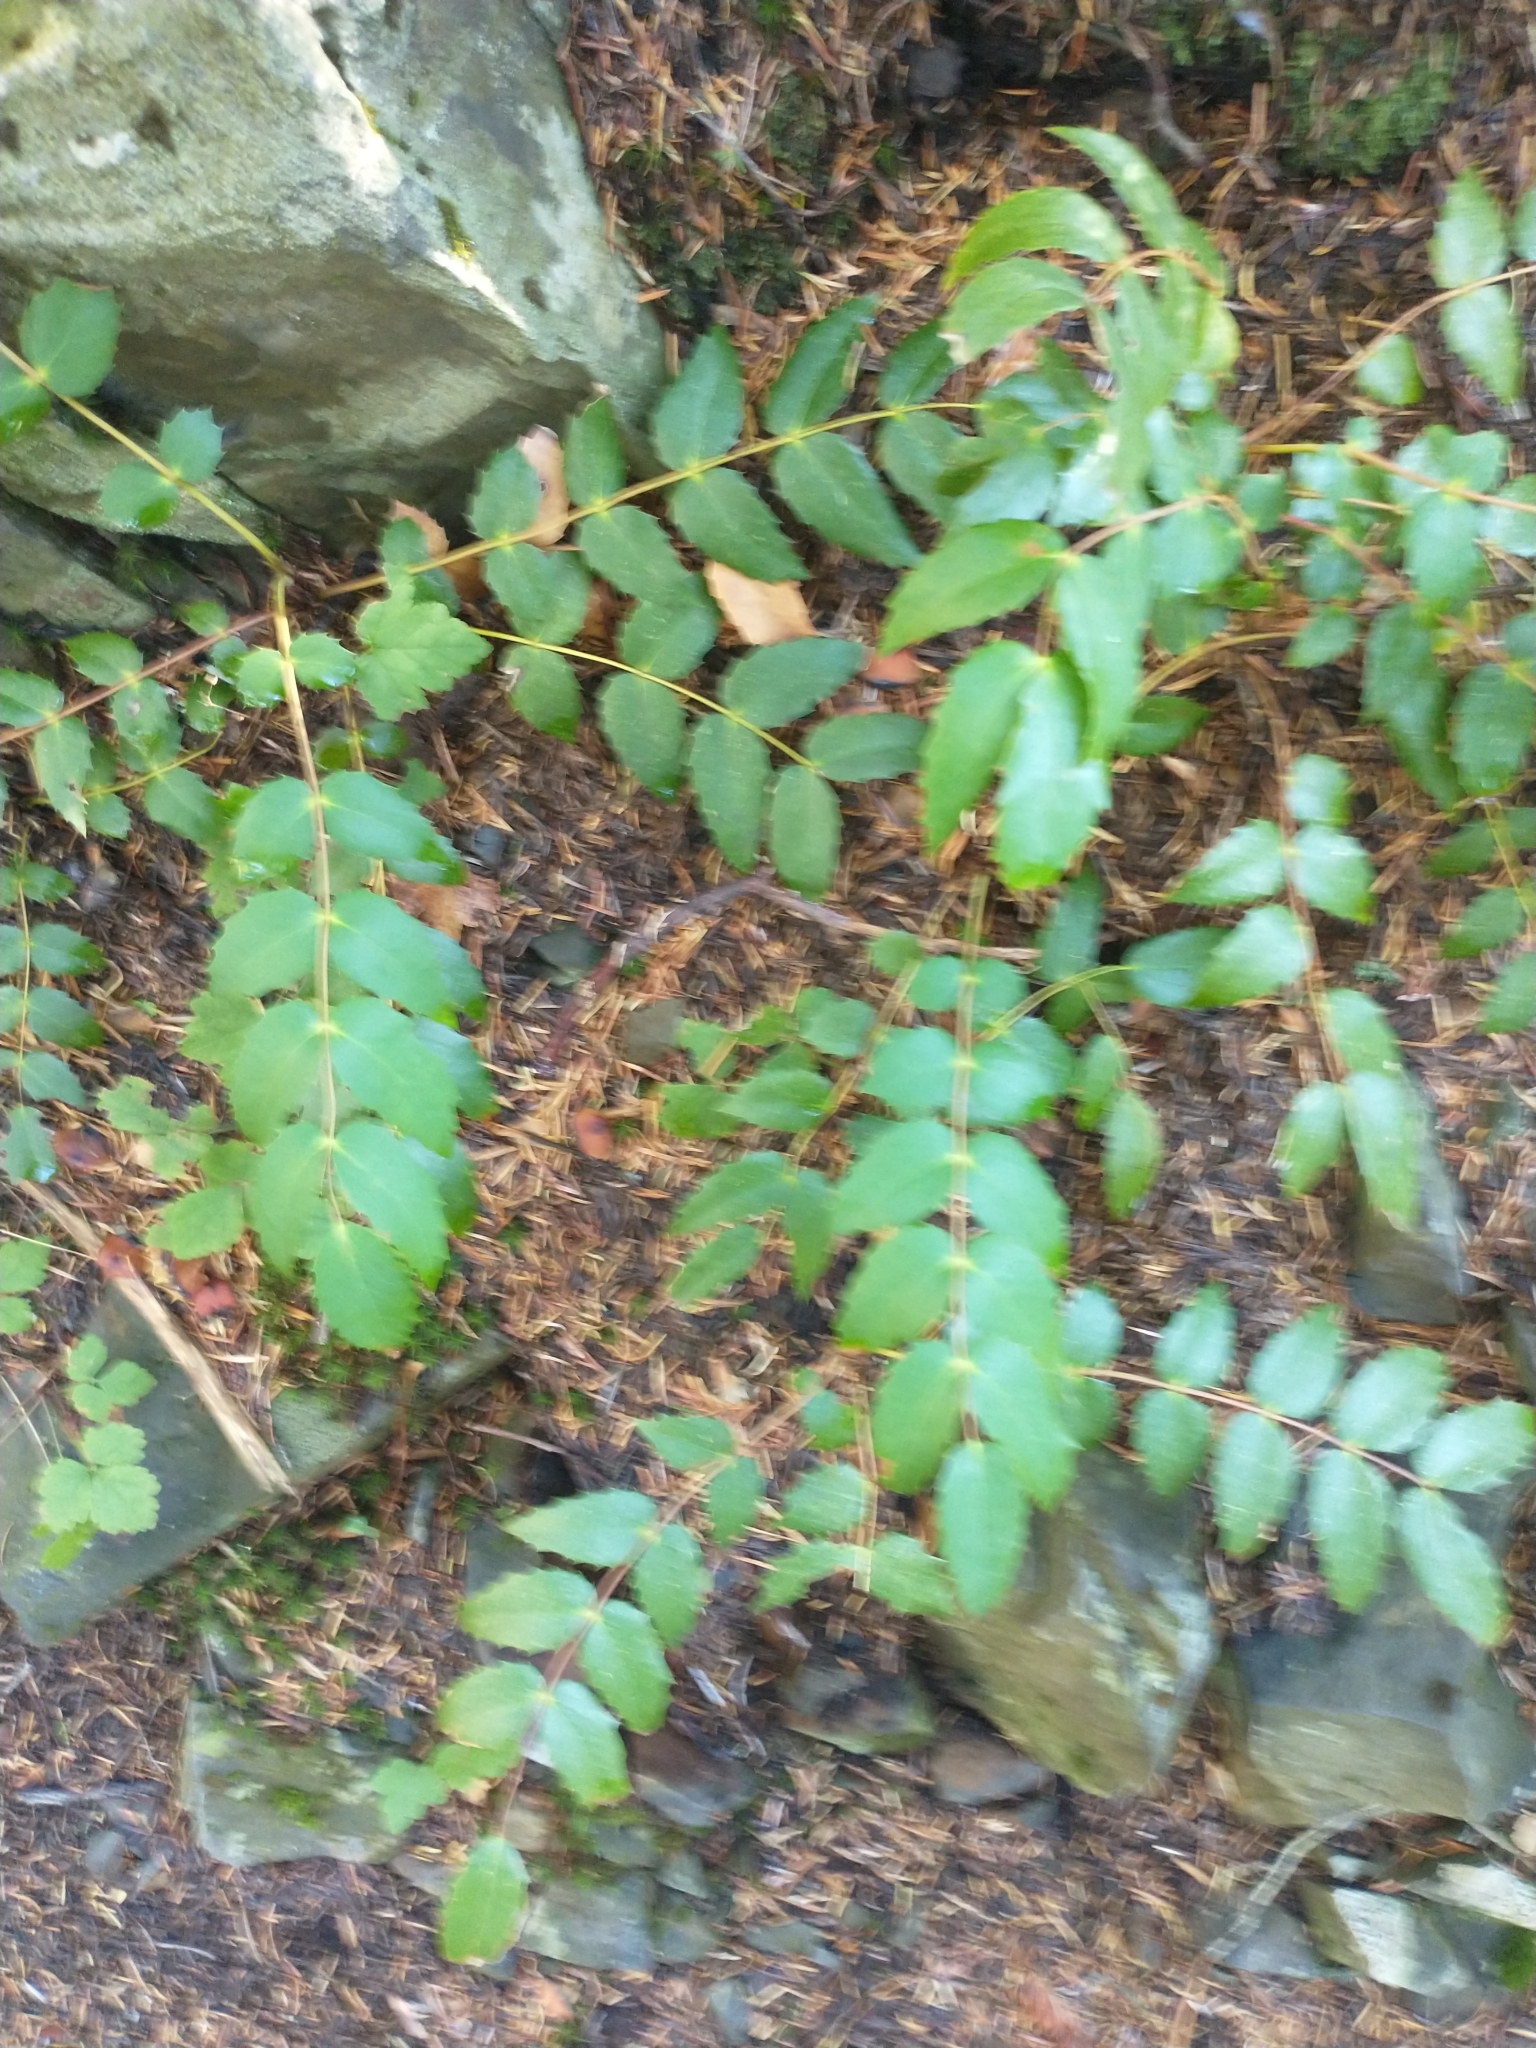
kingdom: Plantae
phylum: Tracheophyta
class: Magnoliopsida
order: Ranunculales
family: Berberidaceae
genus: Mahonia
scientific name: Mahonia nervosa
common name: Cascade oregon-grape
